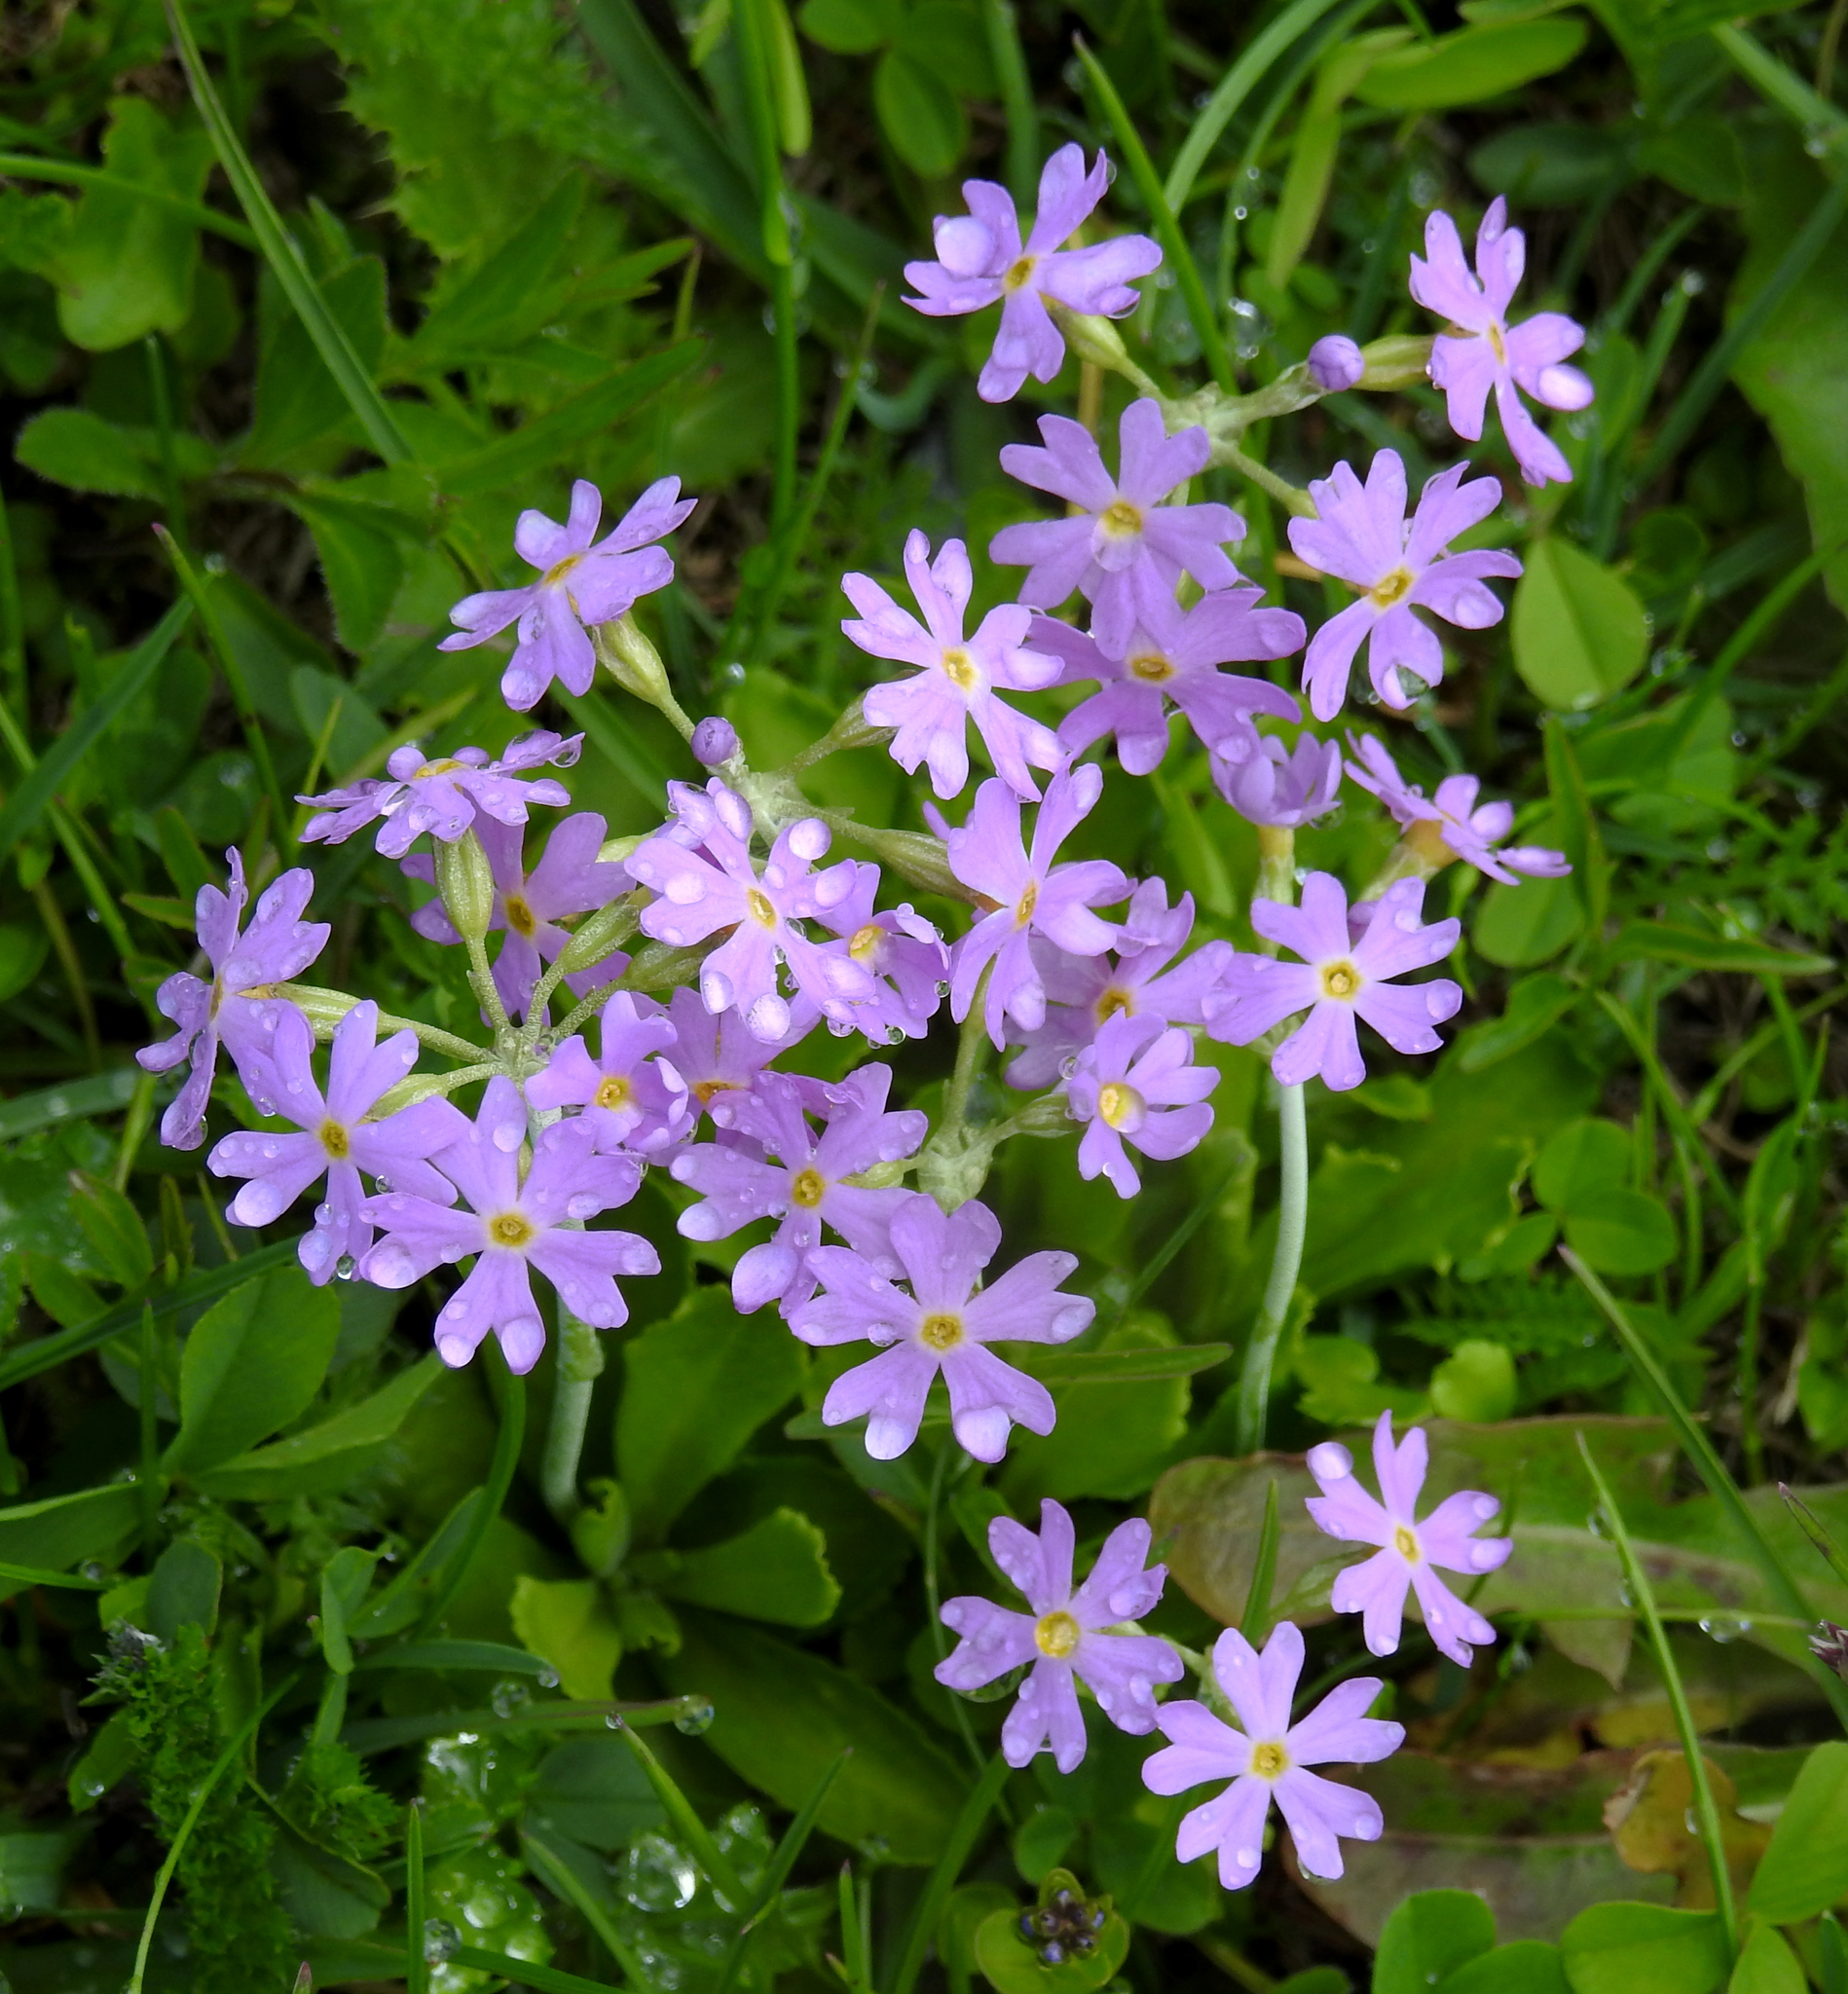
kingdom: Plantae
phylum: Tracheophyta
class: Magnoliopsida
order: Ericales
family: Primulaceae
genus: Primula
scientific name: Primula farinosa
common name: Bird's-eye primrose
